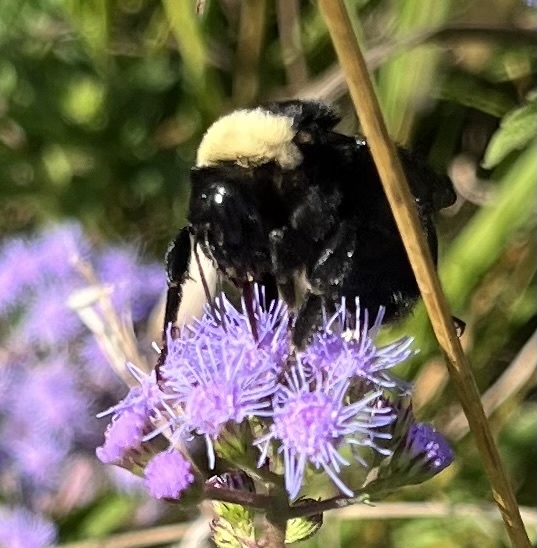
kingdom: Animalia
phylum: Arthropoda
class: Insecta
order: Hymenoptera
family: Apidae
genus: Bombus
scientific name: Bombus pensylvanicus
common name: Bumble bee
